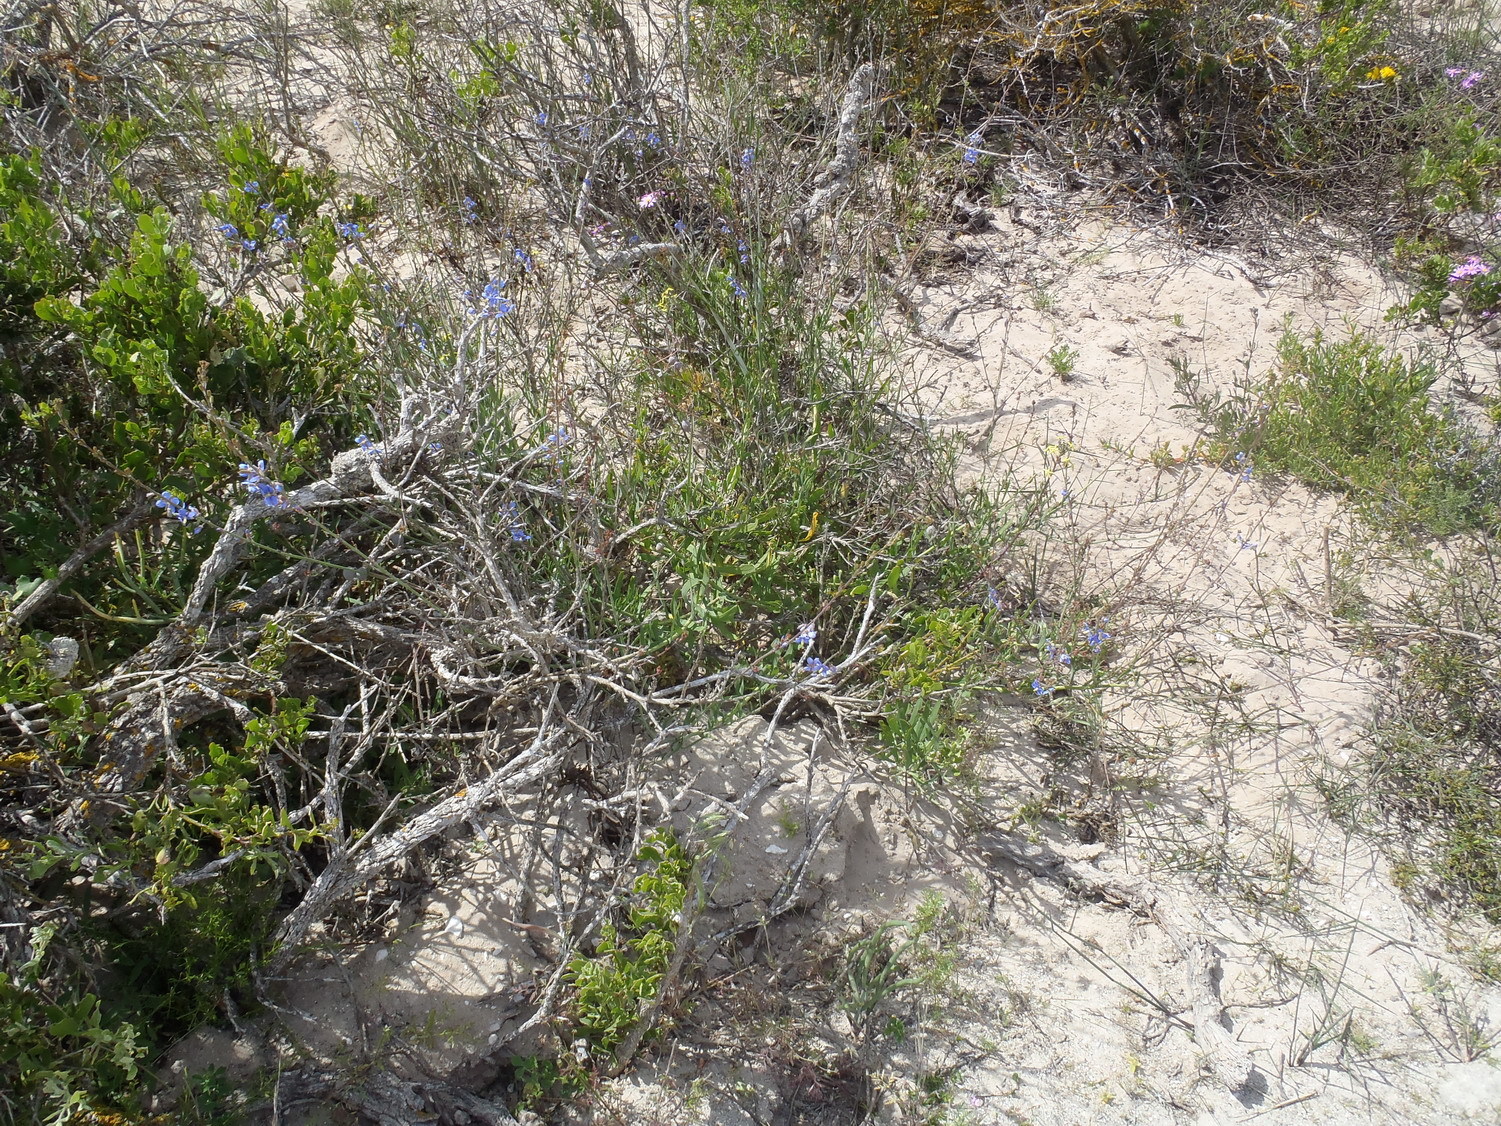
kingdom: Plantae
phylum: Tracheophyta
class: Magnoliopsida
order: Brassicales
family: Brassicaceae
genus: Heliophila
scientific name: Heliophila linearis
